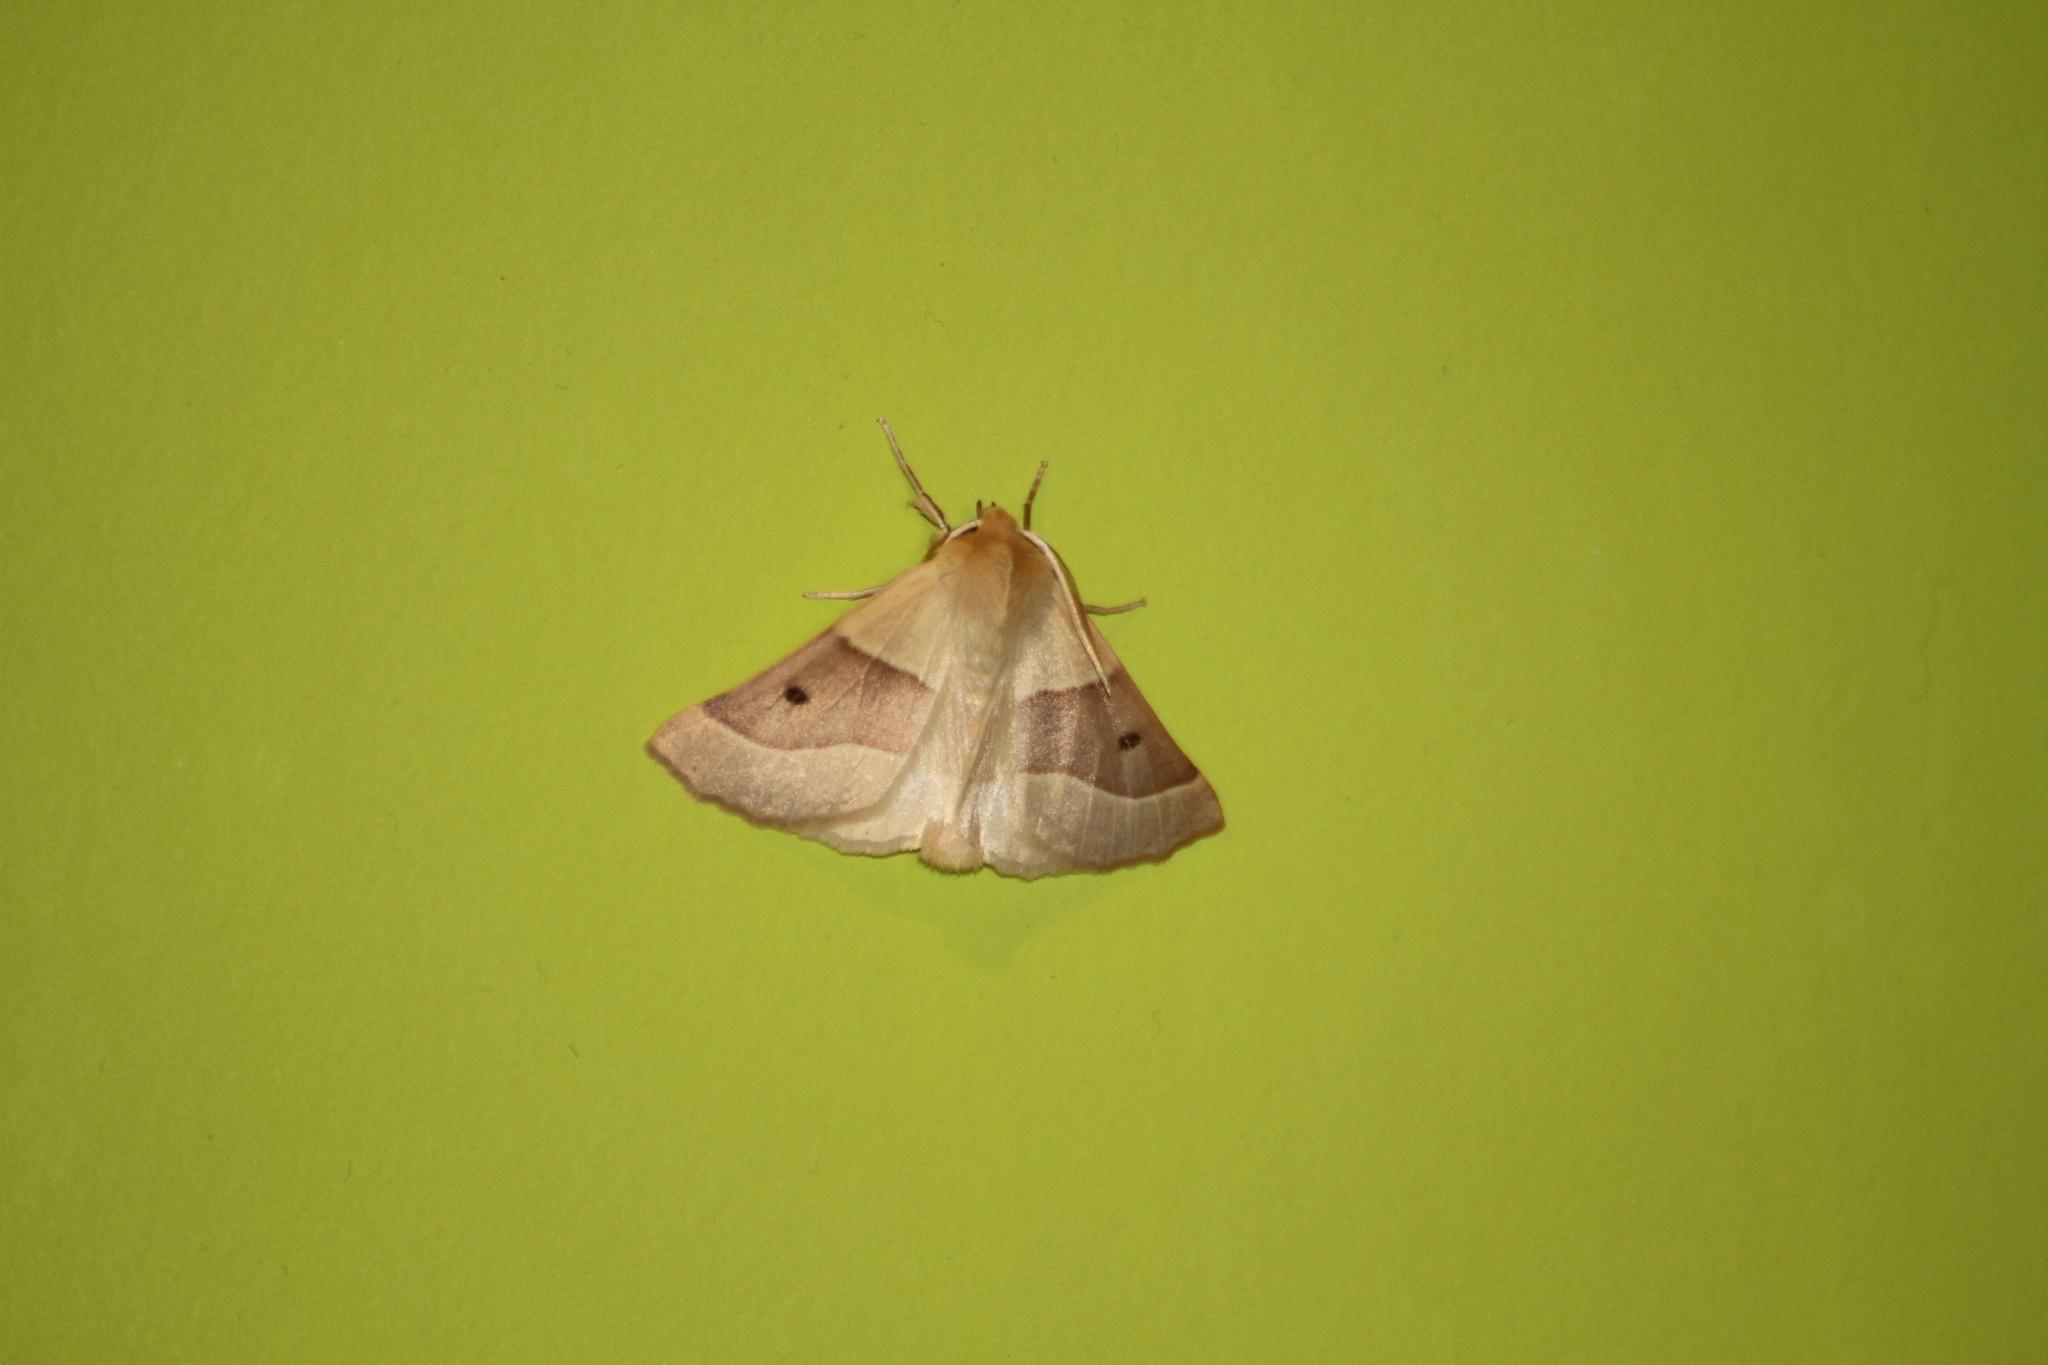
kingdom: Animalia
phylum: Arthropoda
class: Insecta
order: Lepidoptera
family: Geometridae
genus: Crocallis
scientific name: Crocallis elinguaria
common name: Scalloped oak
